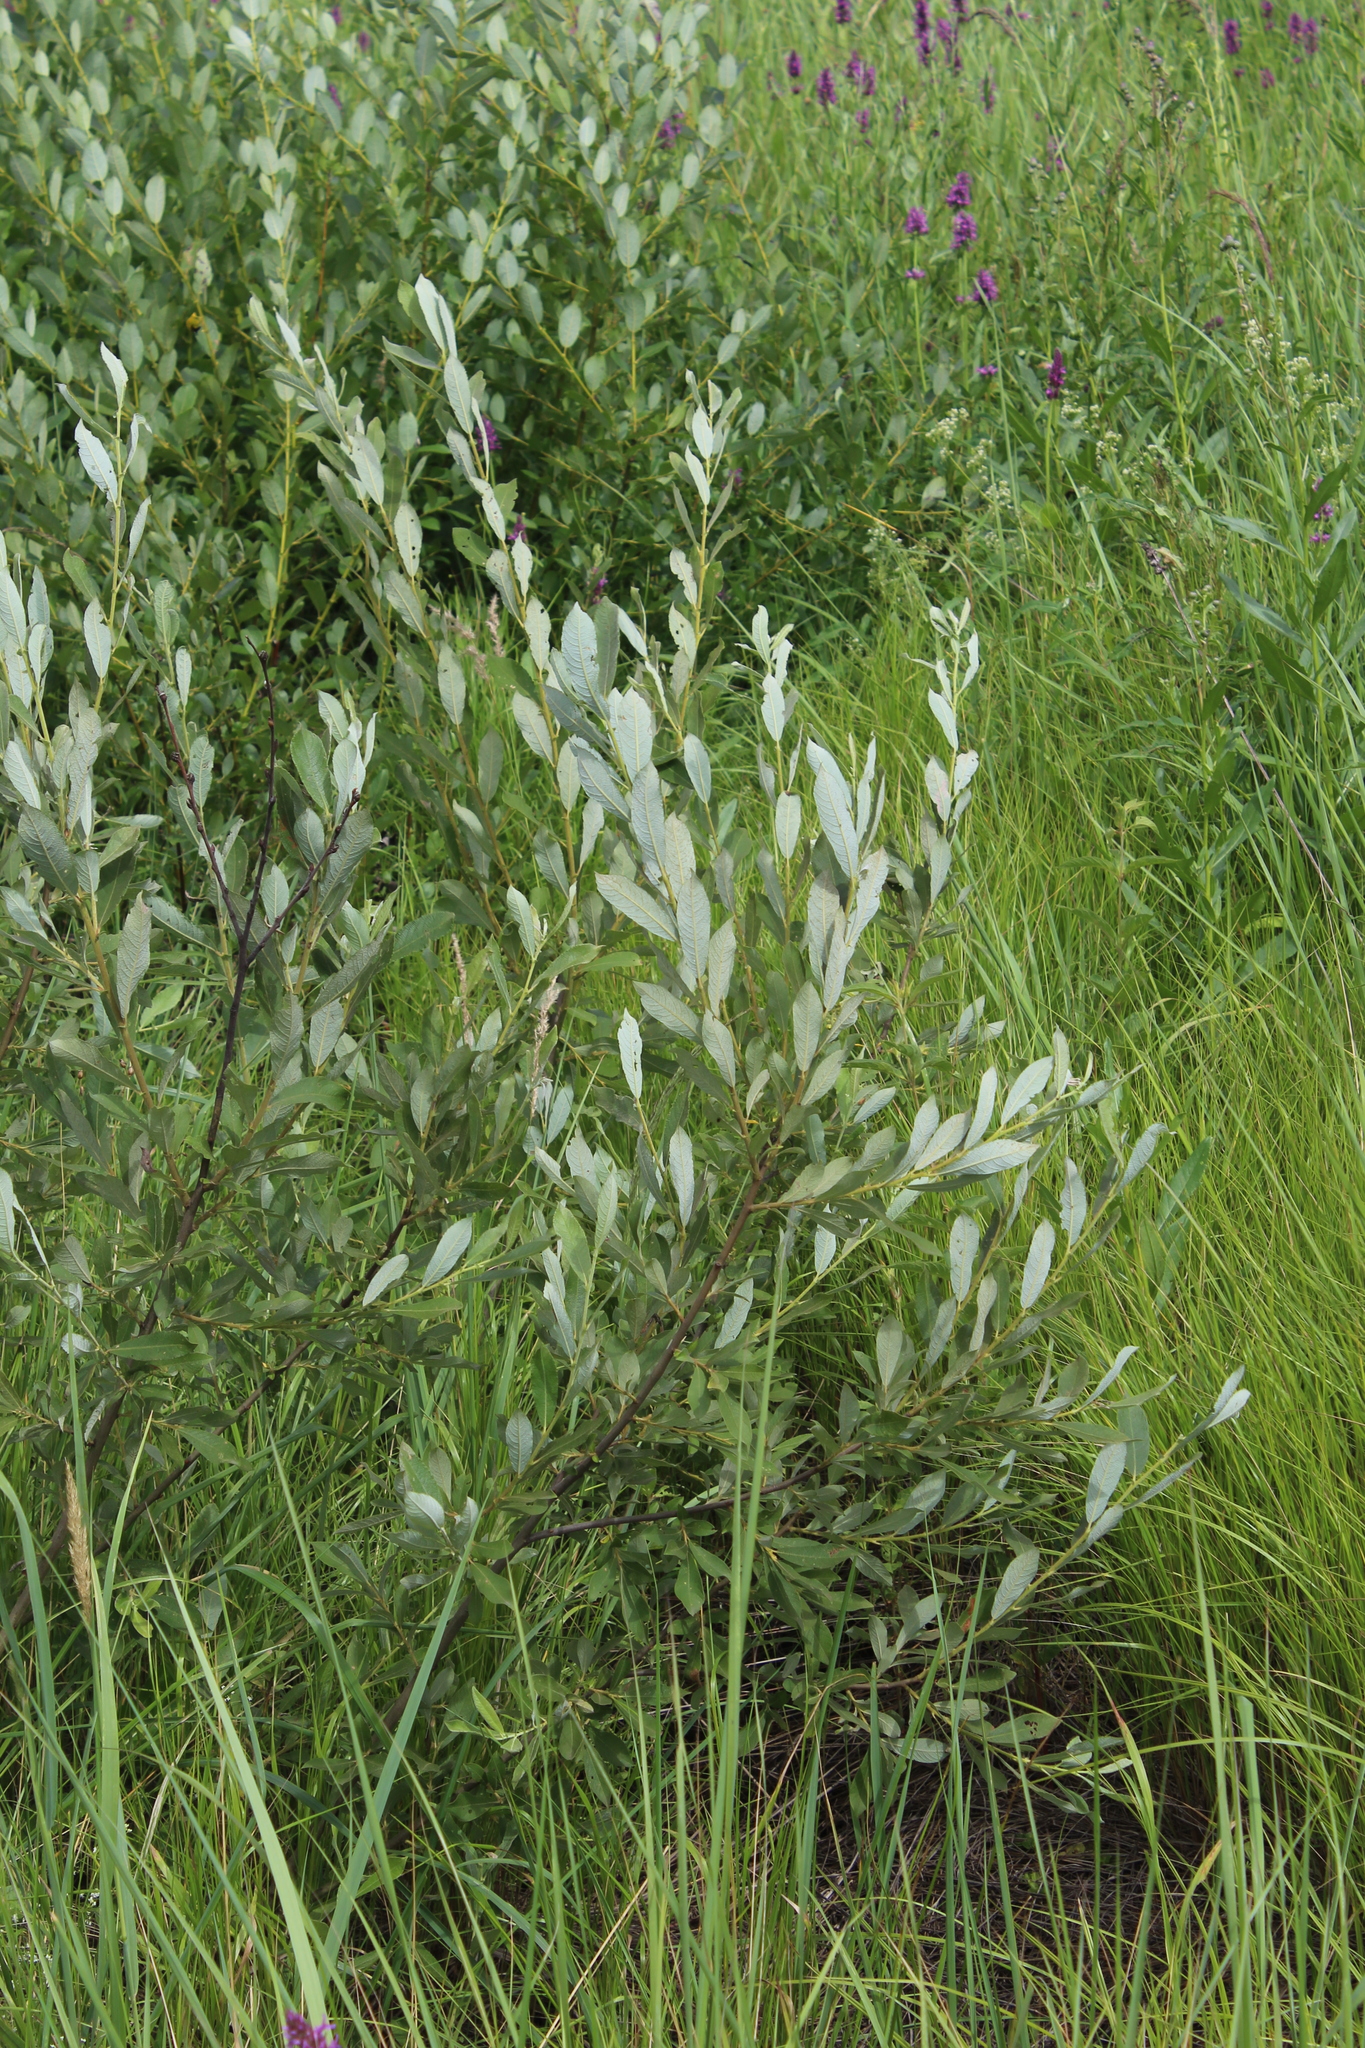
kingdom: Plantae
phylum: Tracheophyta
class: Magnoliopsida
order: Malpighiales
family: Salicaceae
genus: Salix
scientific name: Salix cinerea
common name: Common sallow
